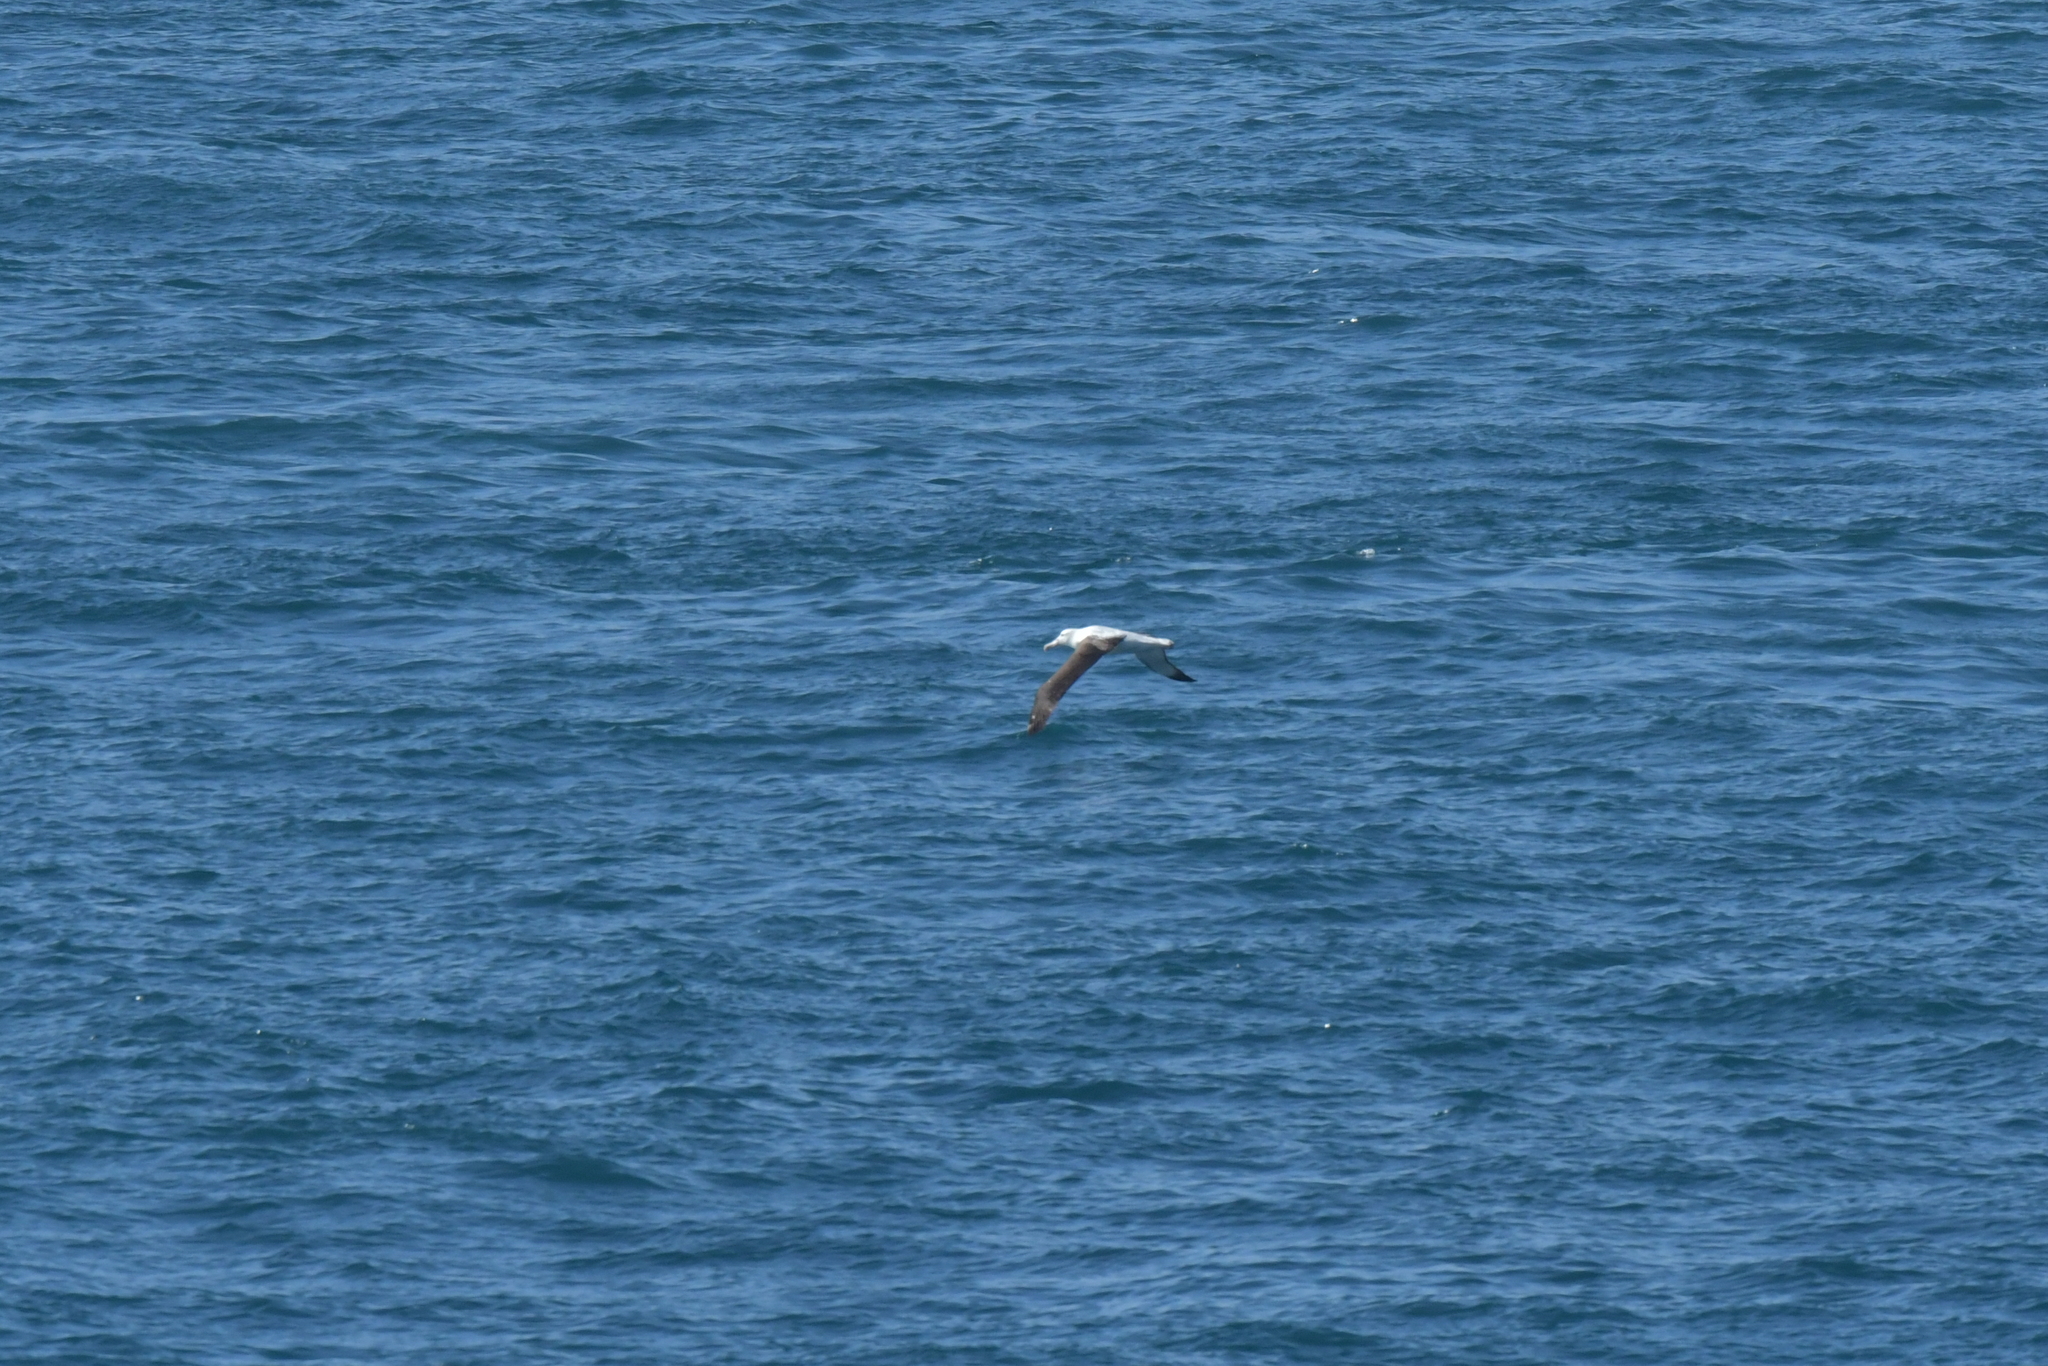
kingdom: Animalia
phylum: Chordata
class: Aves
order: Procellariiformes
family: Diomedeidae
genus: Diomedea
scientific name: Diomedea sanfordi
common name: Northern royal albatross
